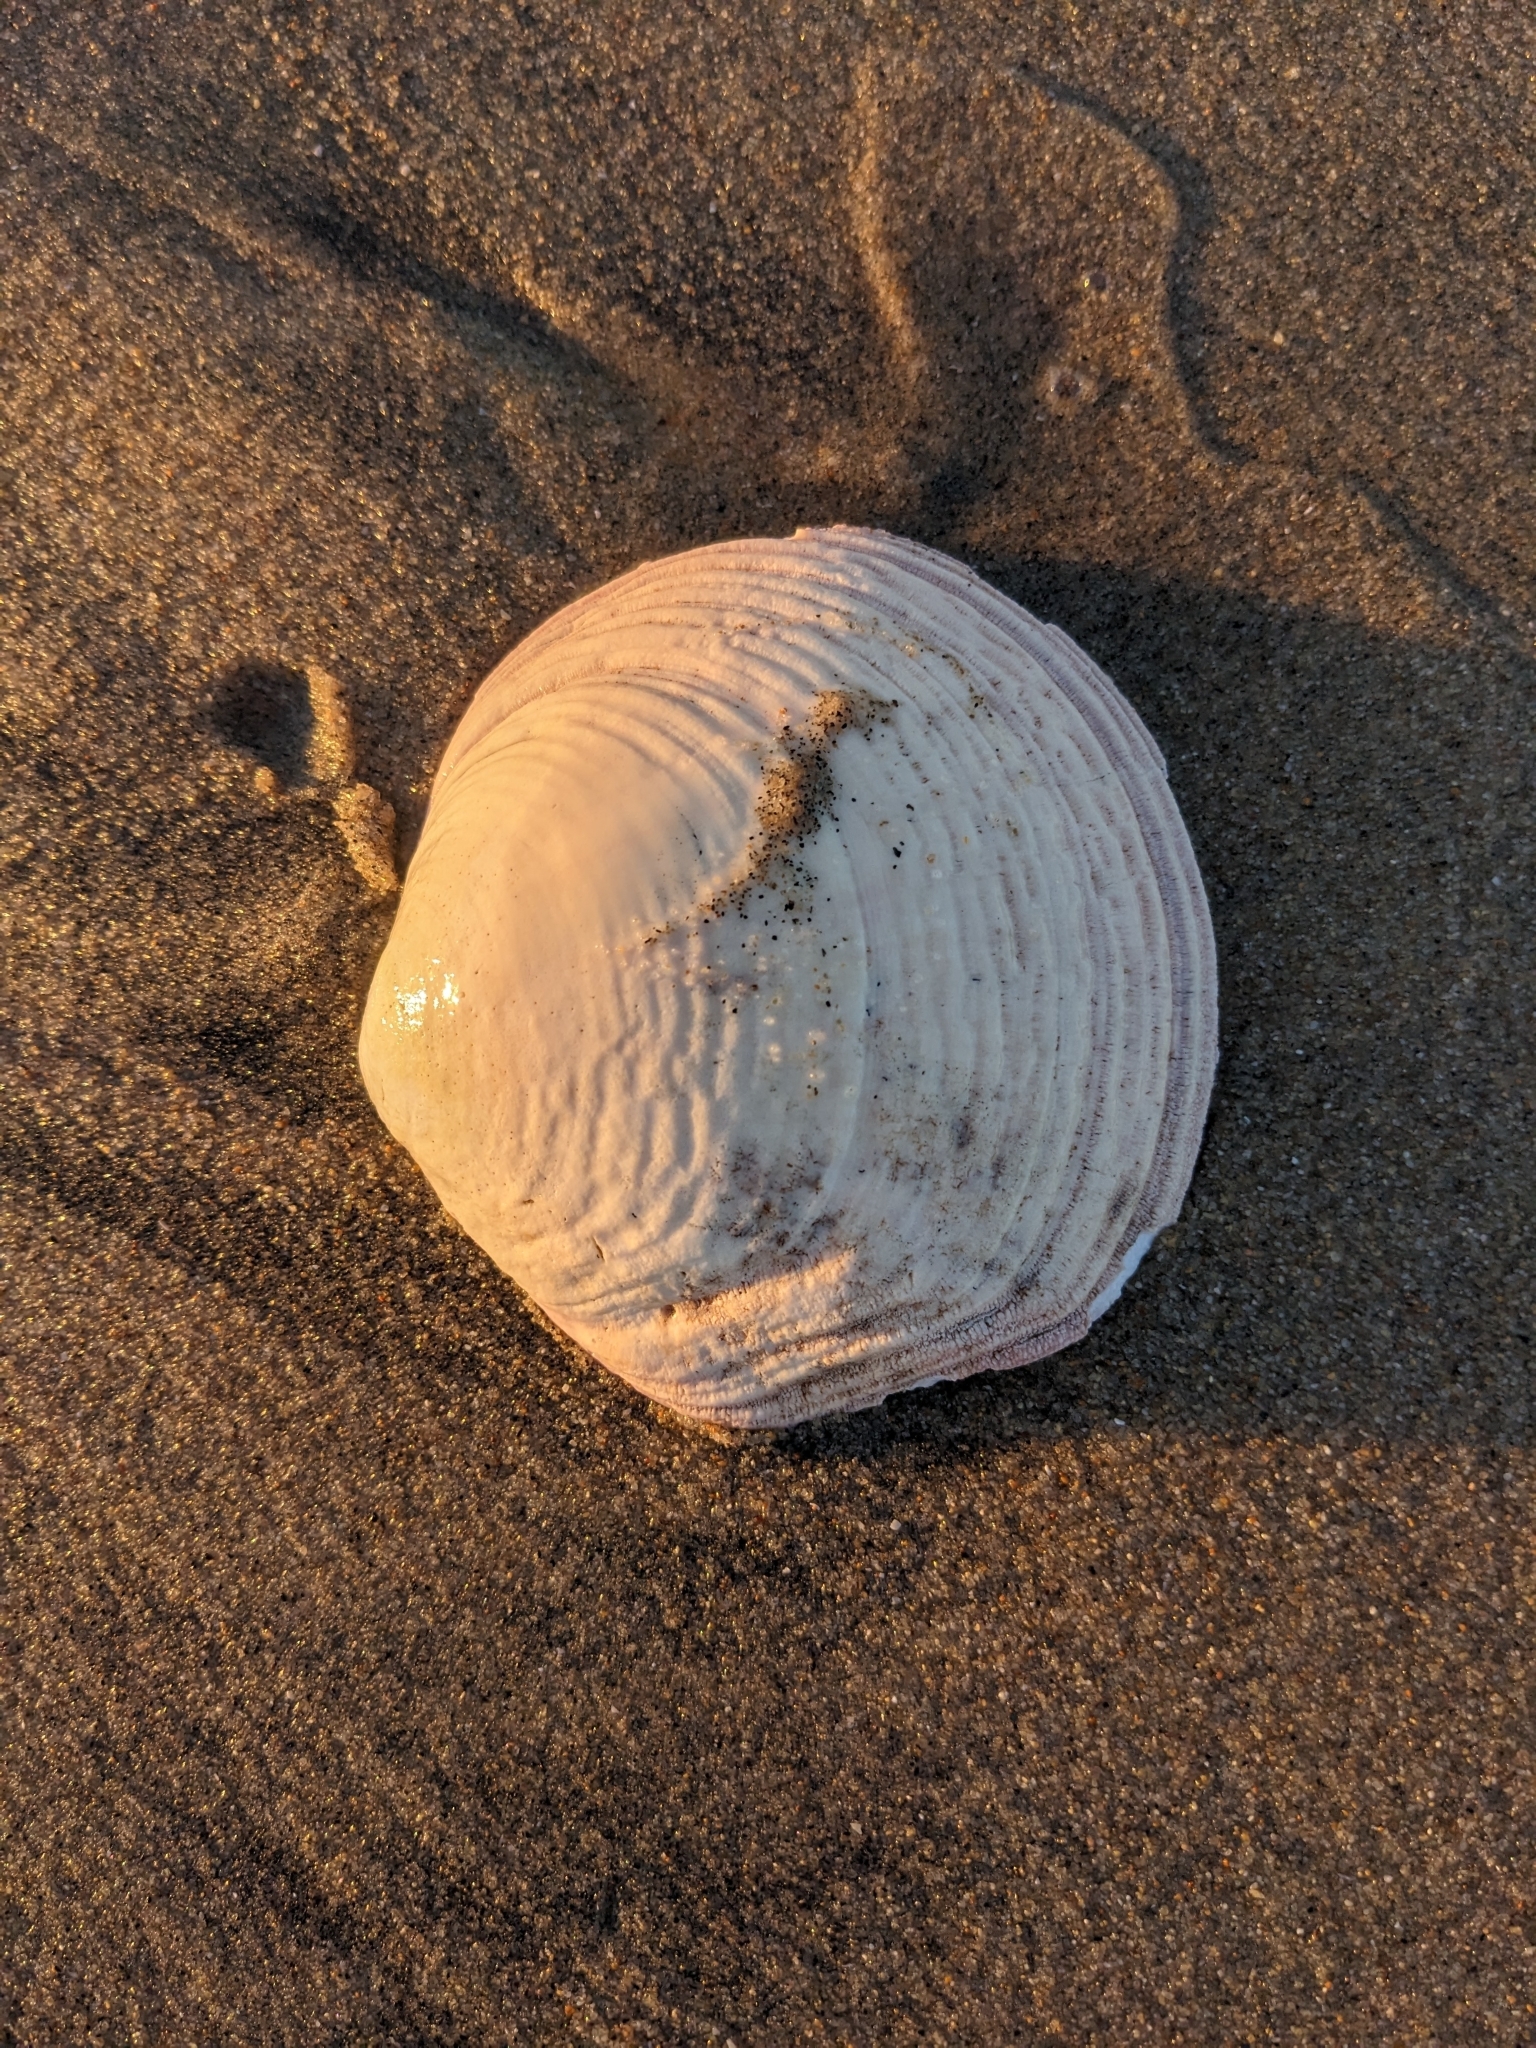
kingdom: Animalia
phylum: Mollusca
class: Bivalvia
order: Cardiida
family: Semelidae
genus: Semele
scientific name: Semele decisa
